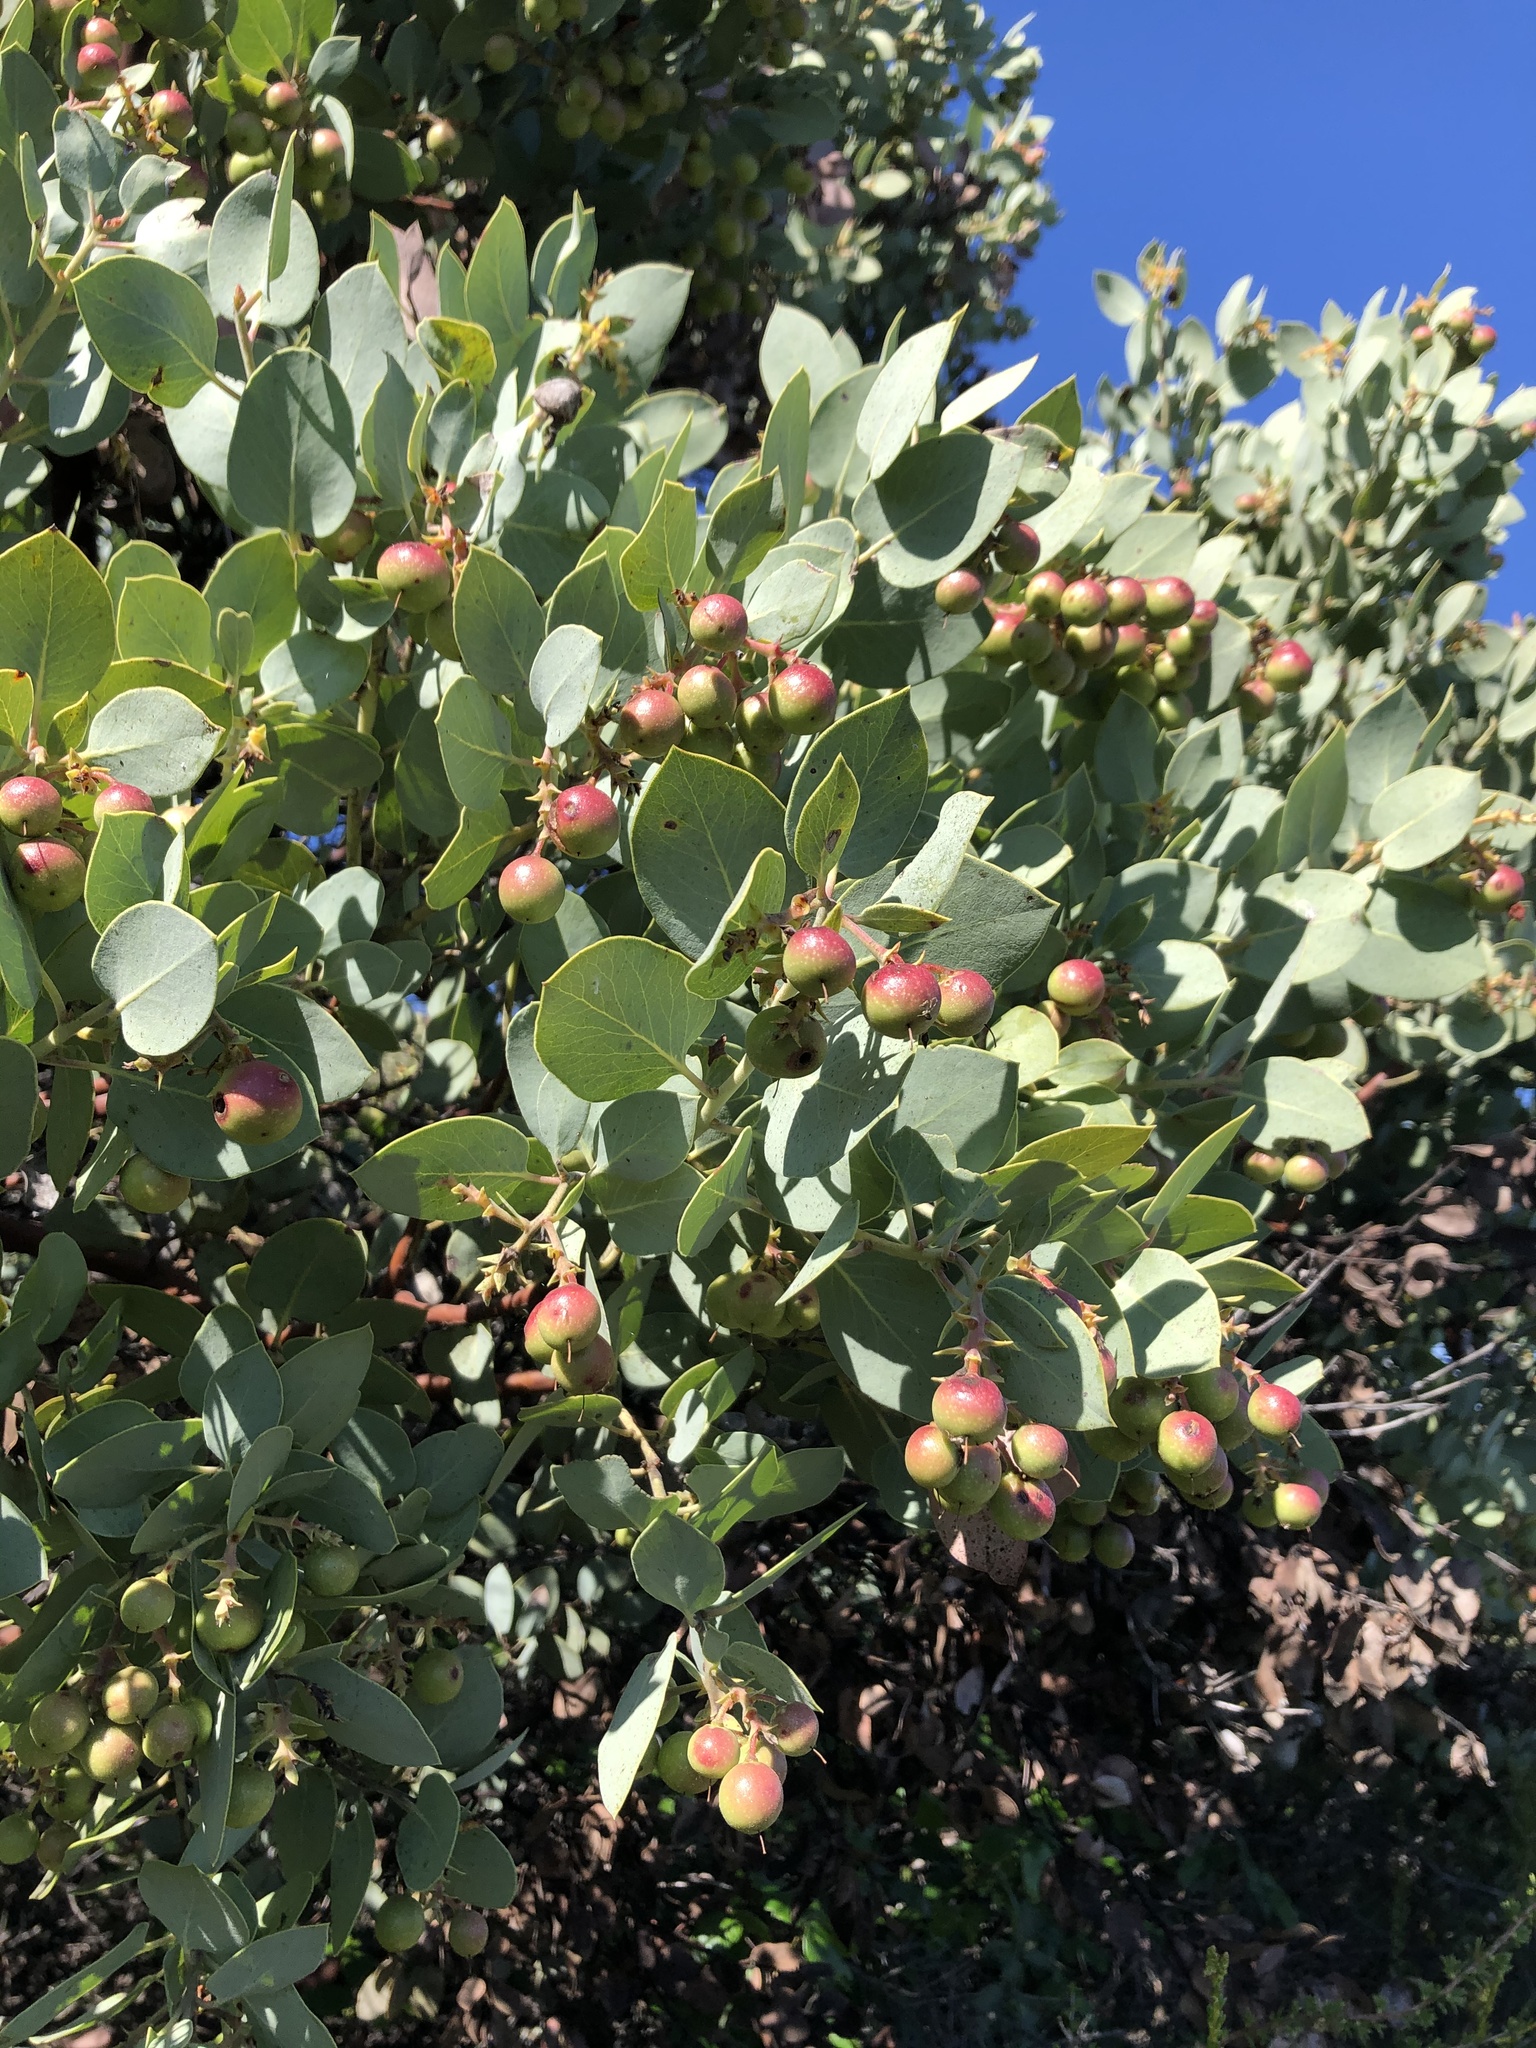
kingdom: Plantae
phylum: Tracheophyta
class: Magnoliopsida
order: Ericales
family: Ericaceae
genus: Arctostaphylos
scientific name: Arctostaphylos glauca
